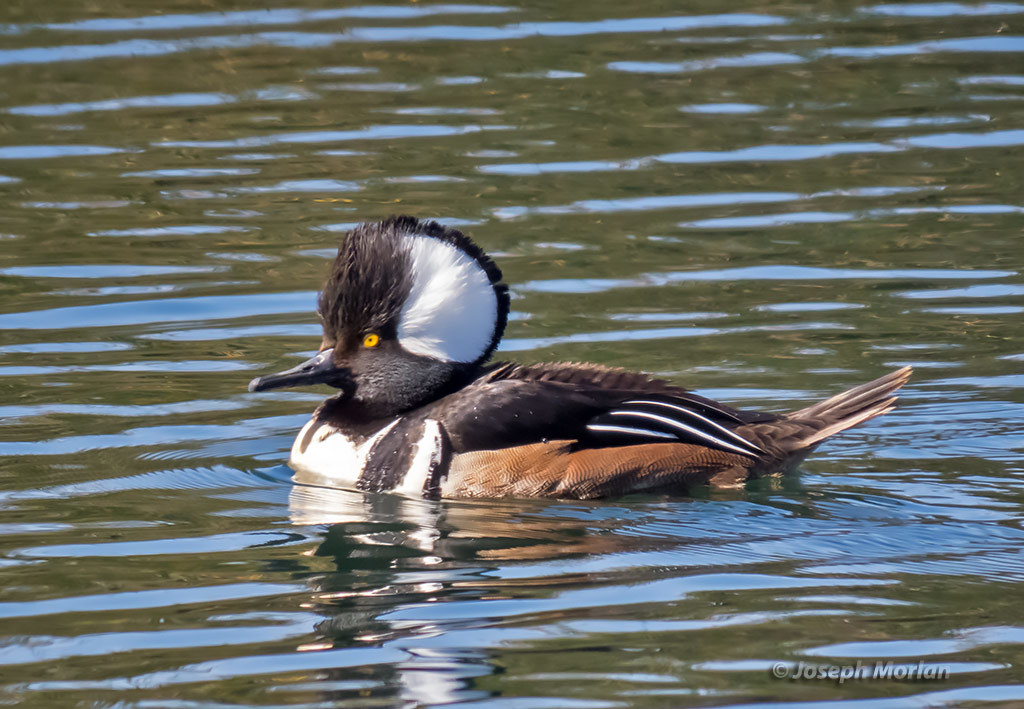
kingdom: Animalia
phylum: Chordata
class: Aves
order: Anseriformes
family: Anatidae
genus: Lophodytes
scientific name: Lophodytes cucullatus
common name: Hooded merganser
